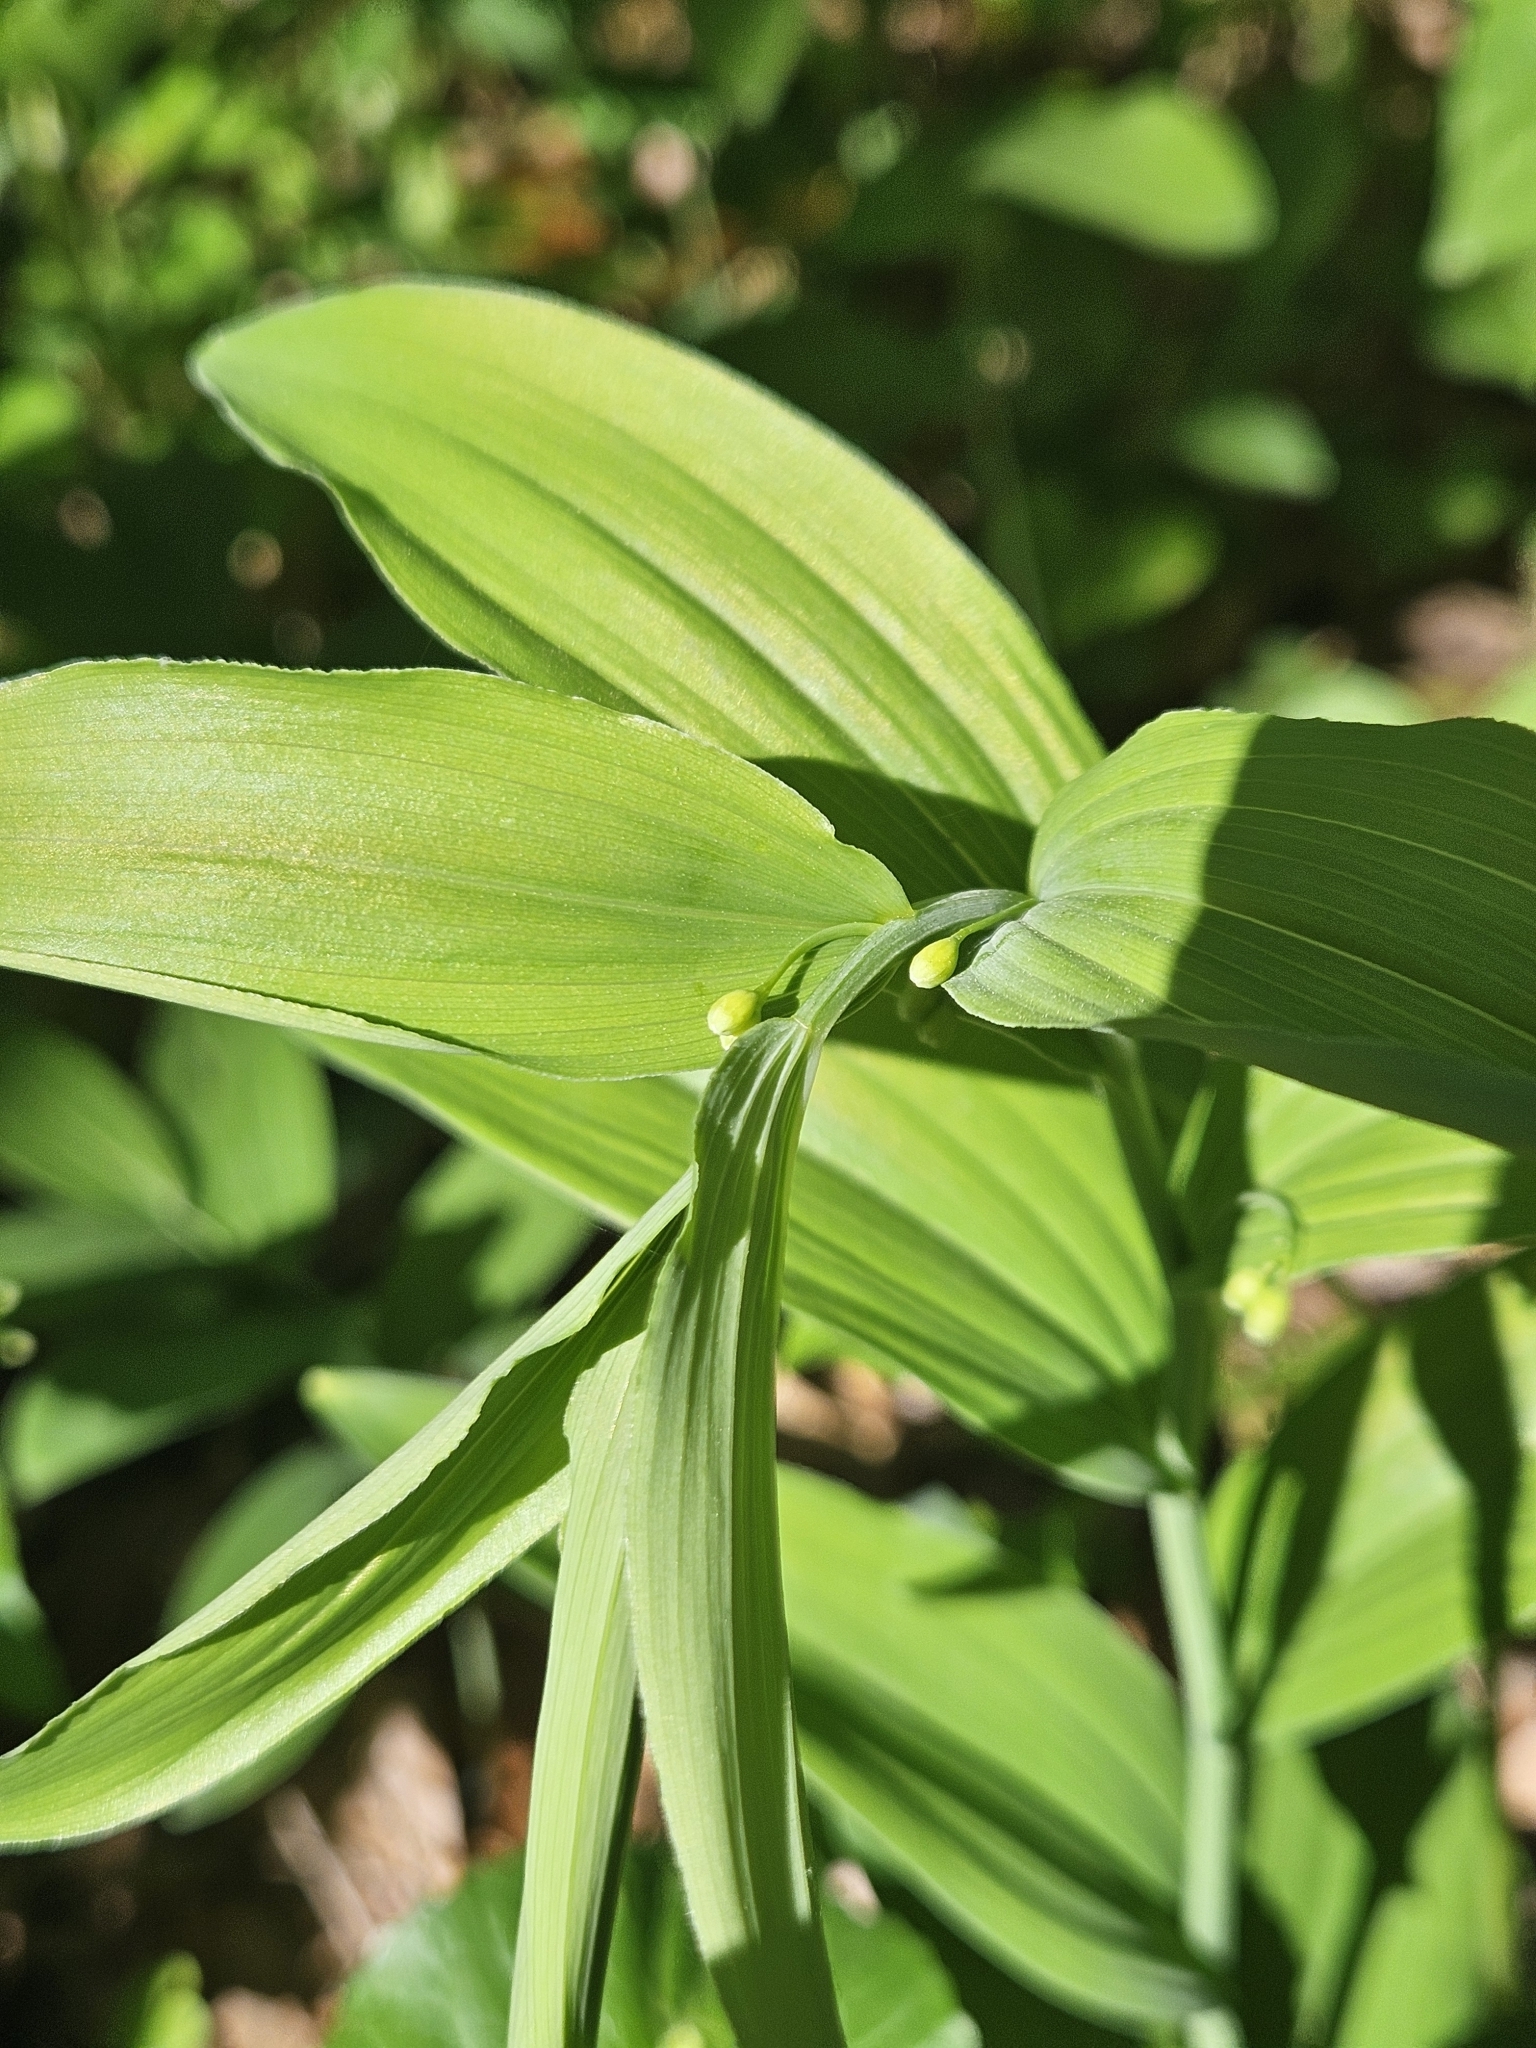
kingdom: Plantae
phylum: Tracheophyta
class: Liliopsida
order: Asparagales
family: Asparagaceae
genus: Polygonatum
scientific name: Polygonatum biflorum
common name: American solomon's-seal
